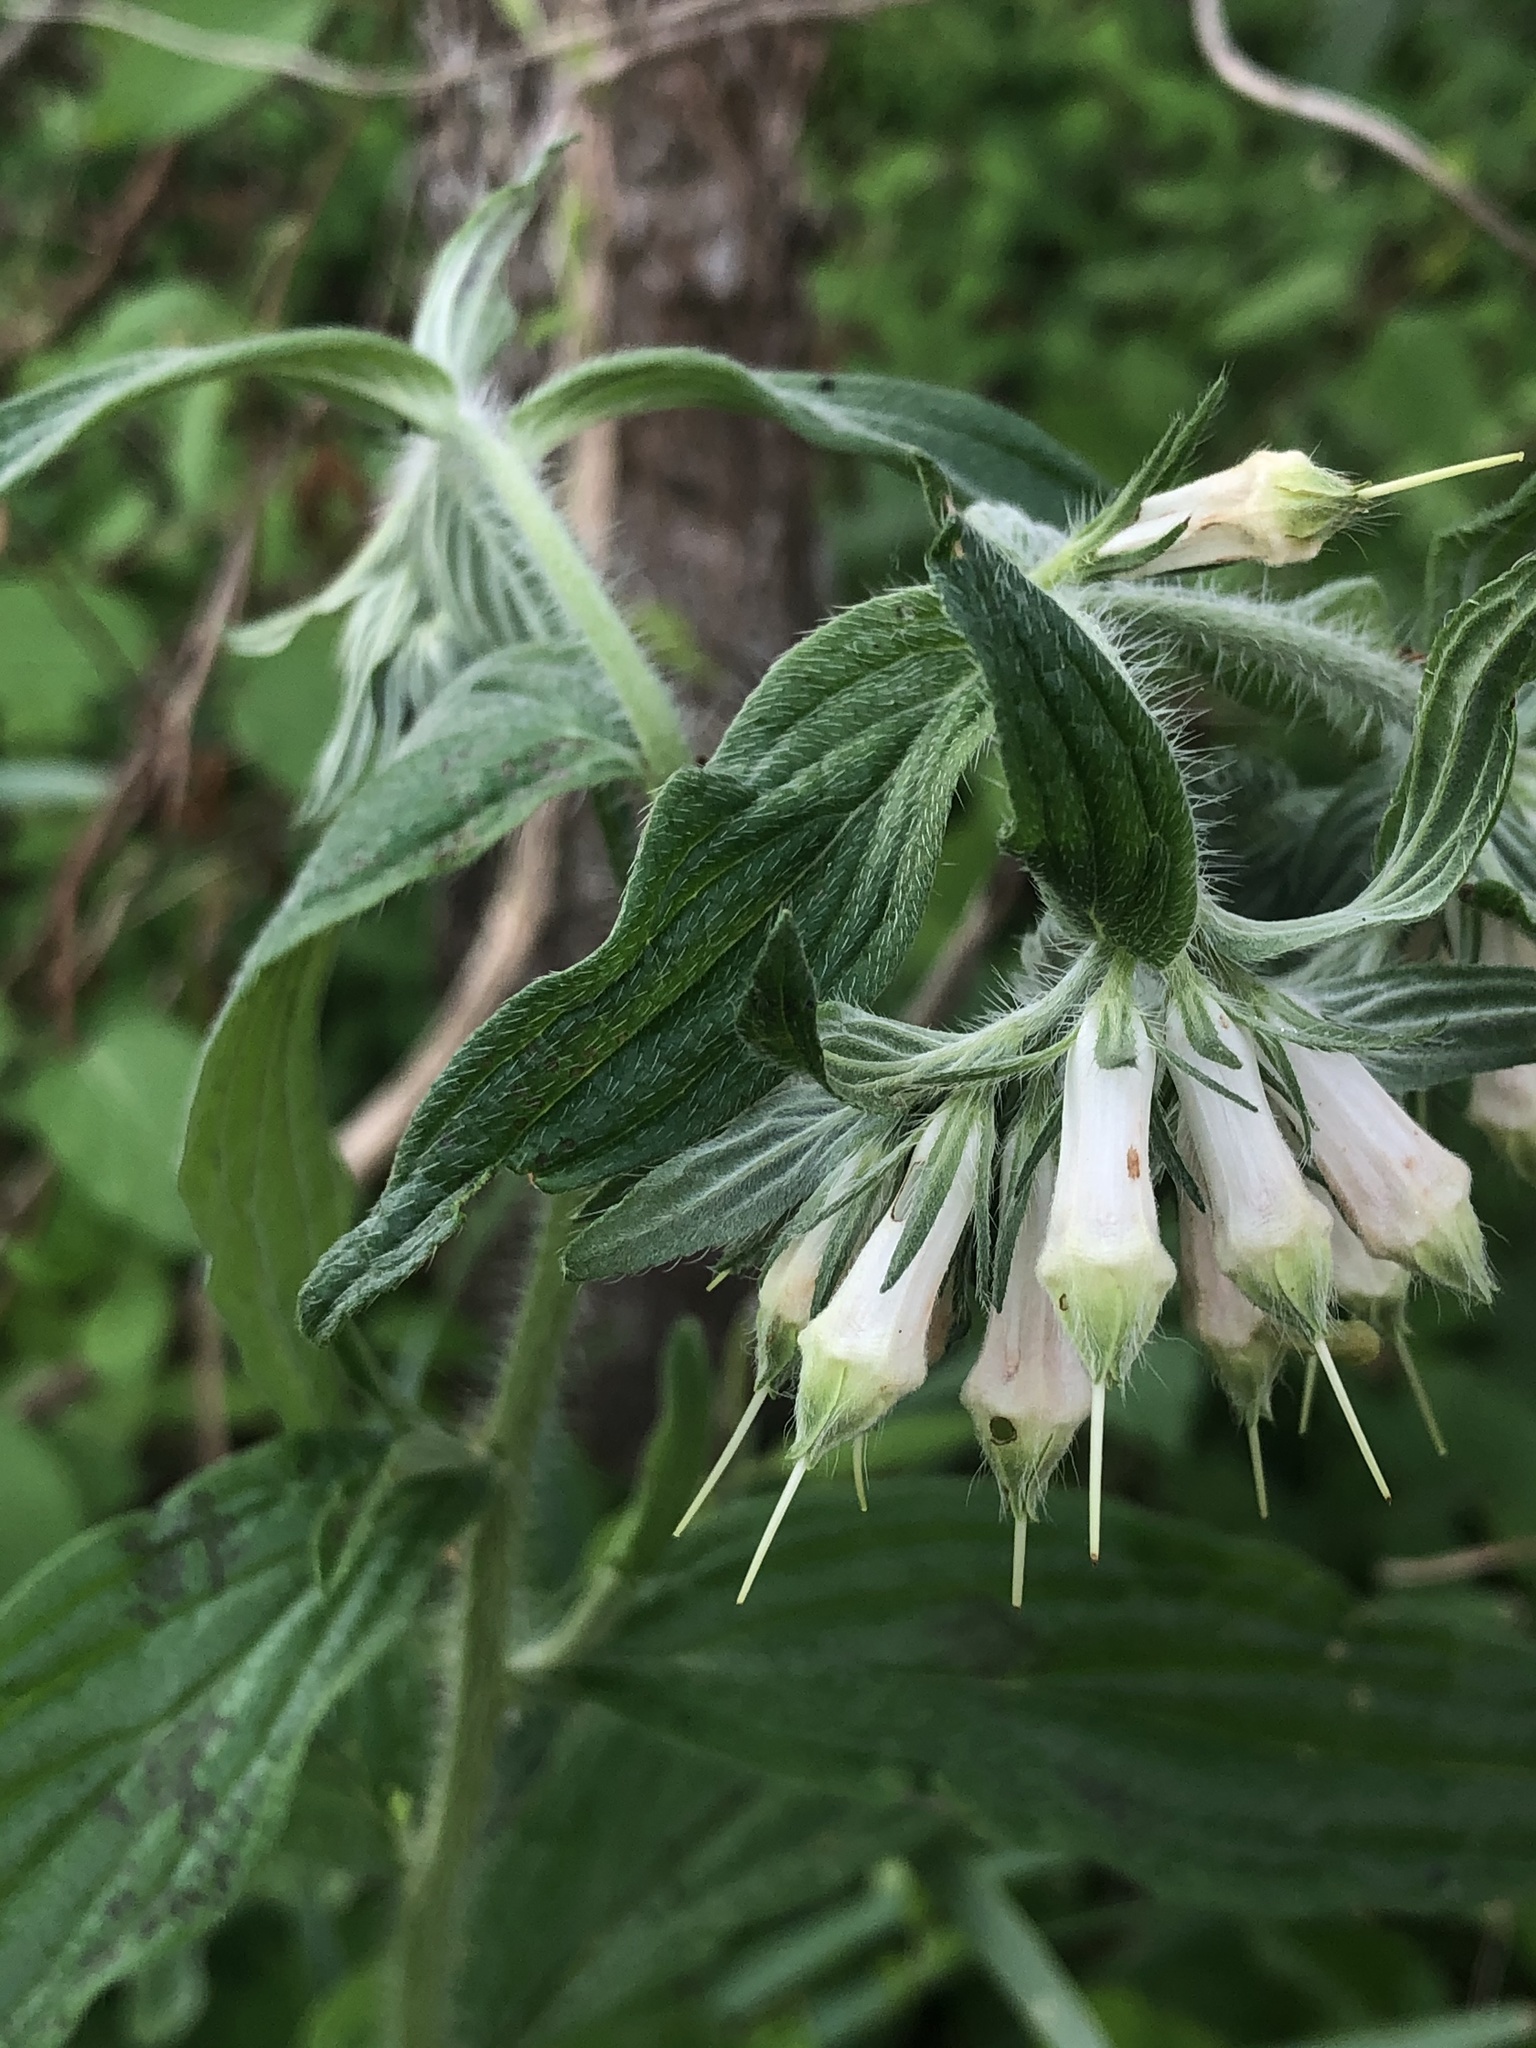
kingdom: Plantae
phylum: Tracheophyta
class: Magnoliopsida
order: Boraginales
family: Boraginaceae
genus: Lithospermum
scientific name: Lithospermum caroliniense
